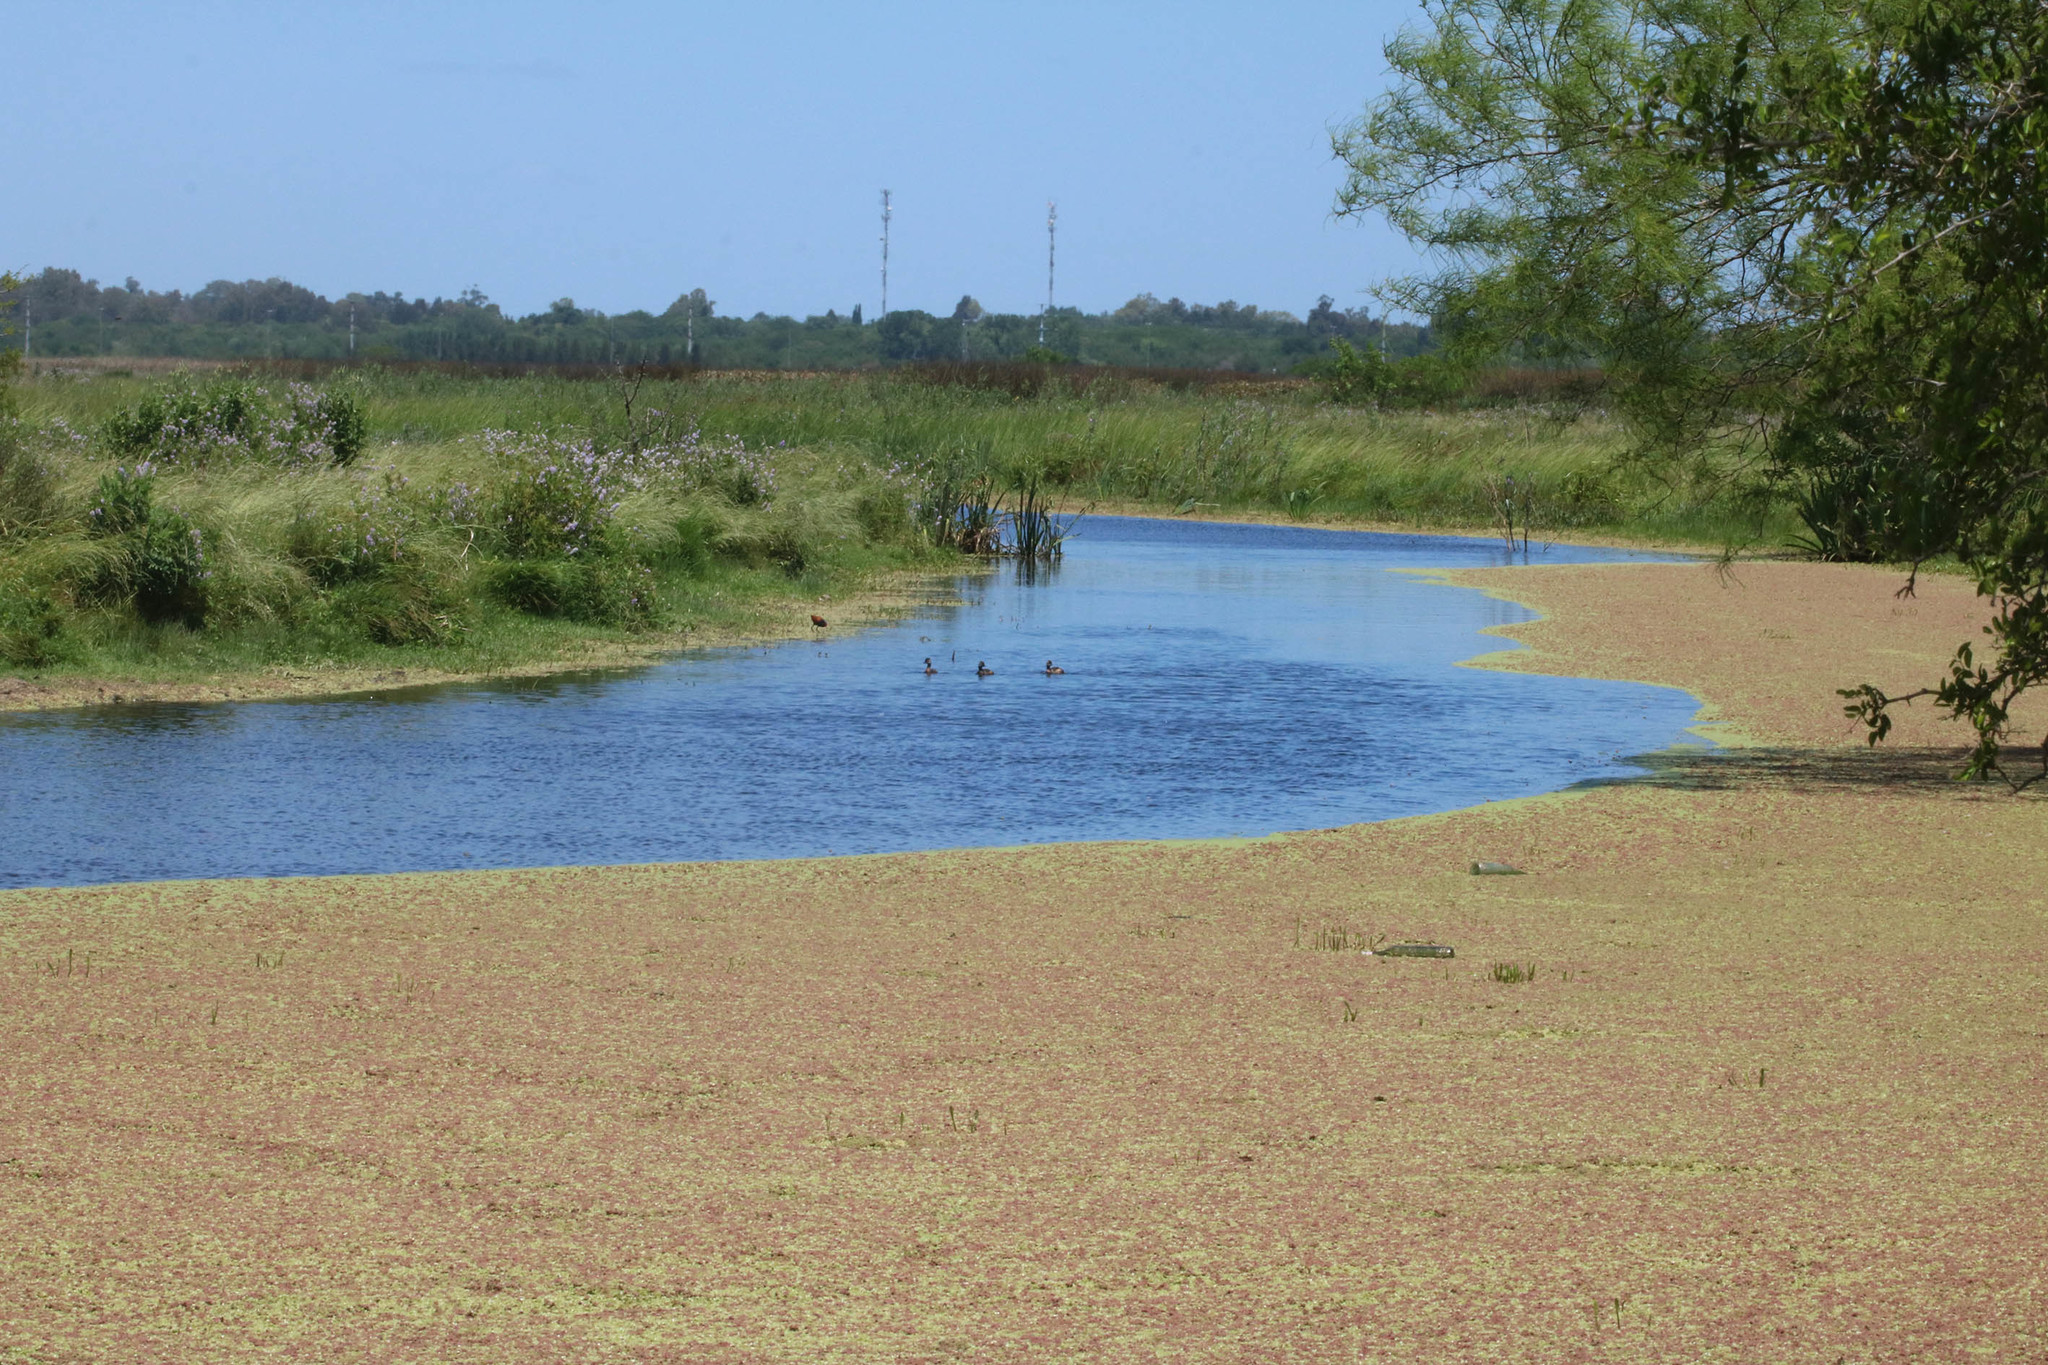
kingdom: Animalia
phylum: Chordata
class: Aves
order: Podicipediformes
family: Podicipedidae
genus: Rollandia
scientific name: Rollandia rolland
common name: White-tufted grebe
